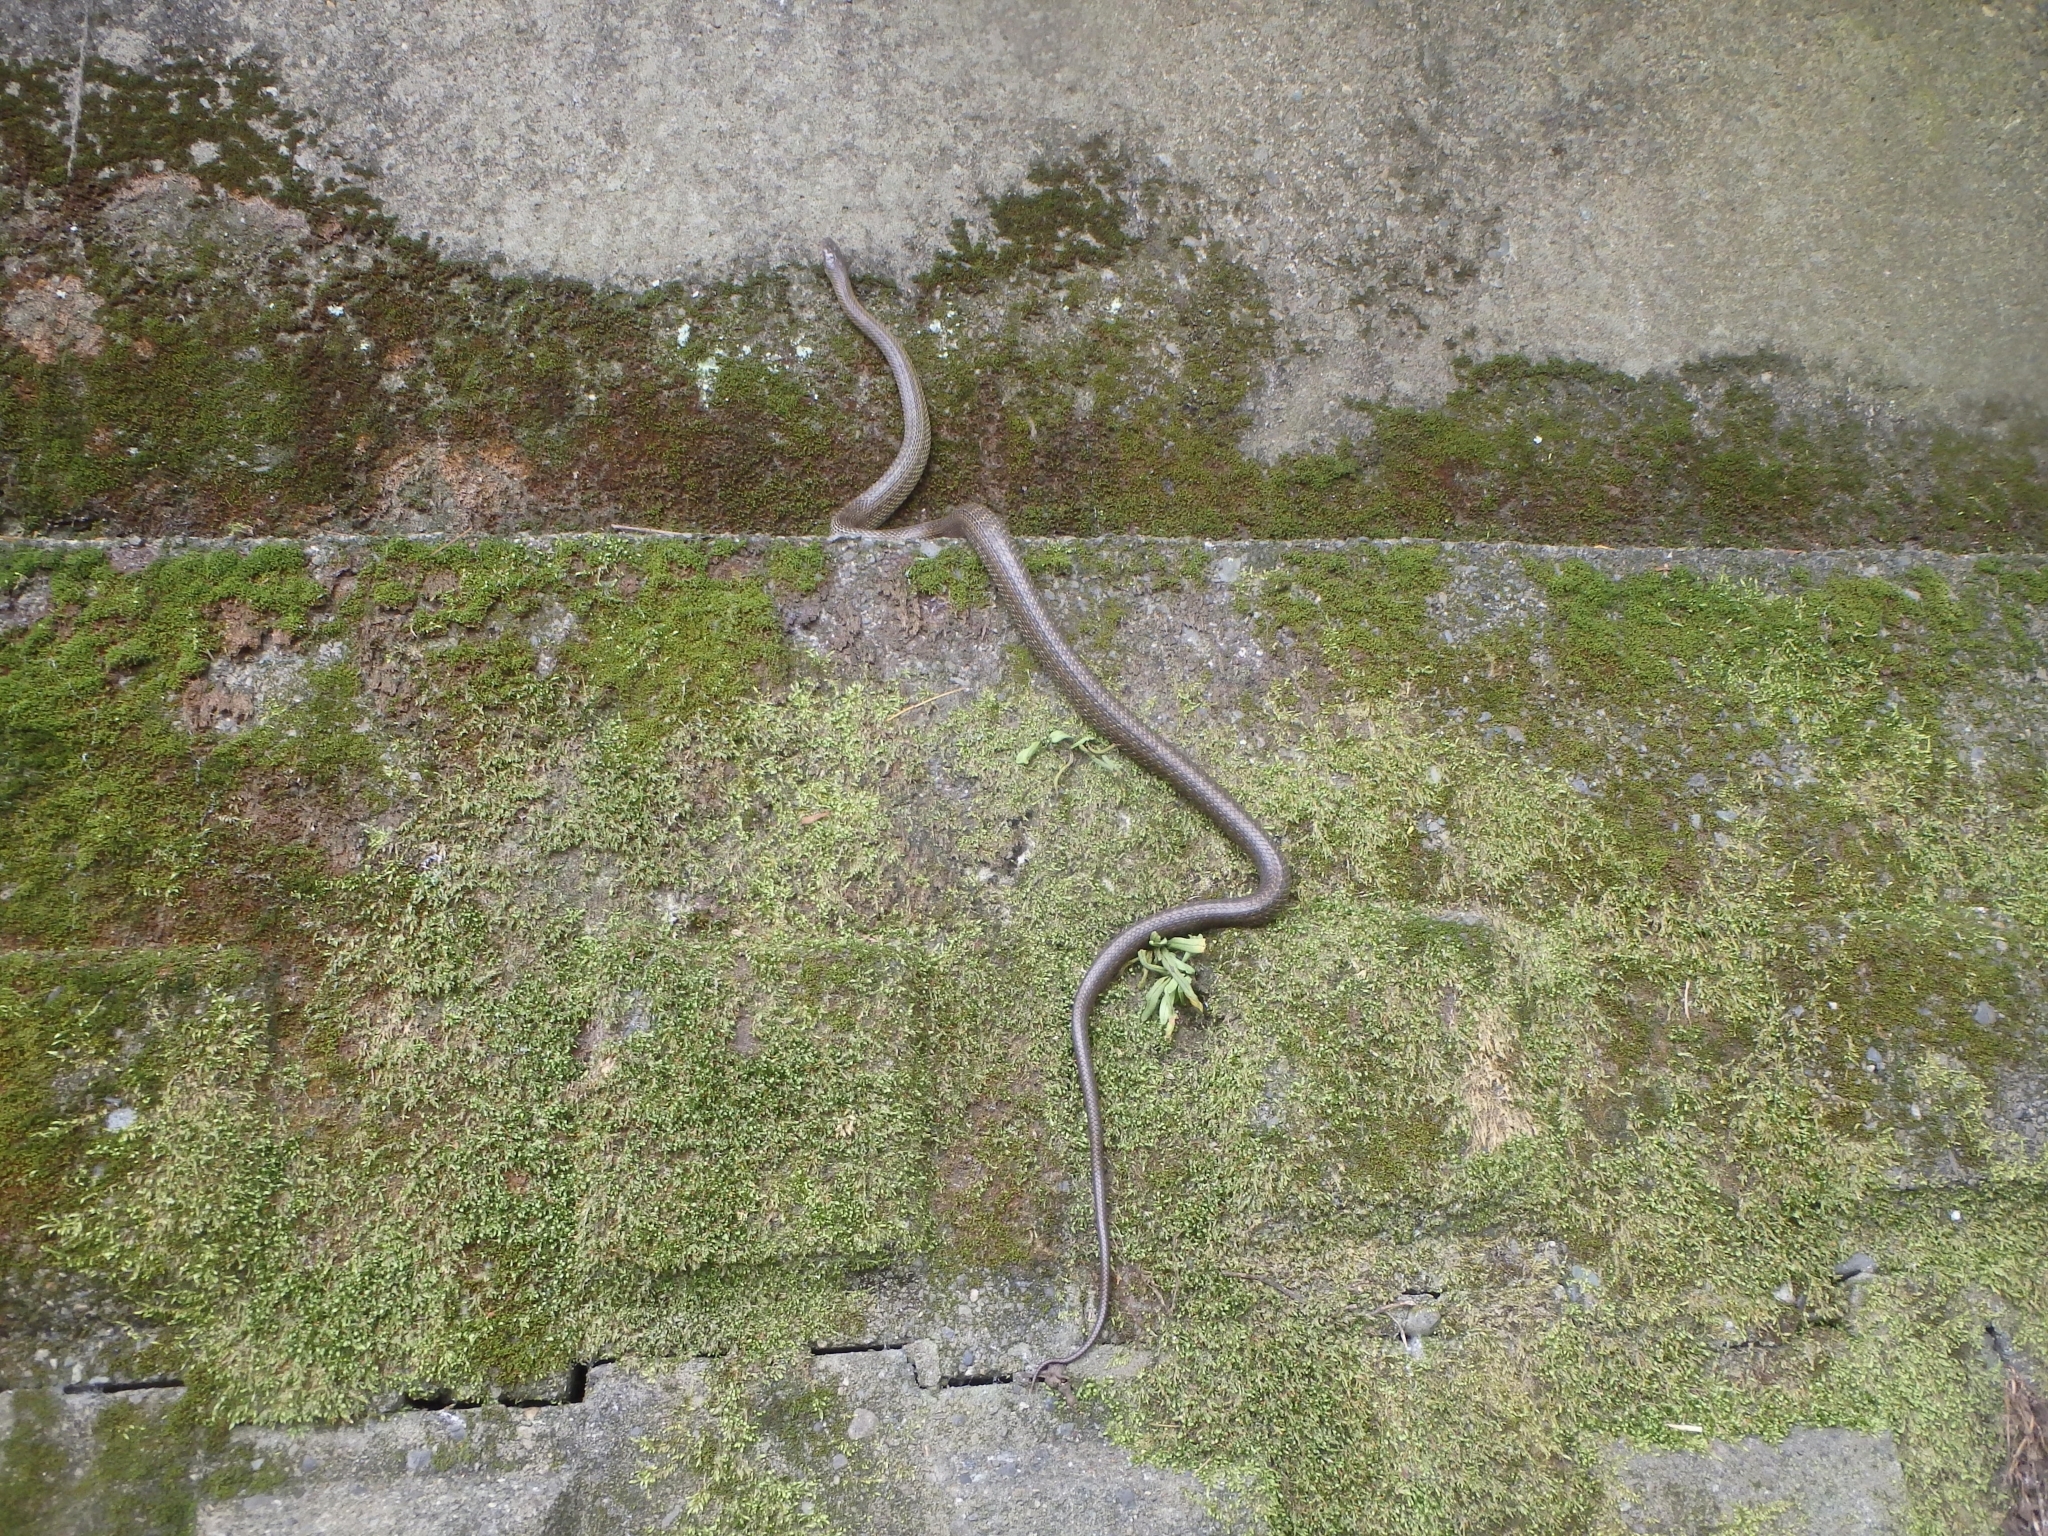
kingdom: Animalia
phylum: Chordata
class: Squamata
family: Colubridae
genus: Elaphe
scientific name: Elaphe climacophora
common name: Japanese ratsnake
